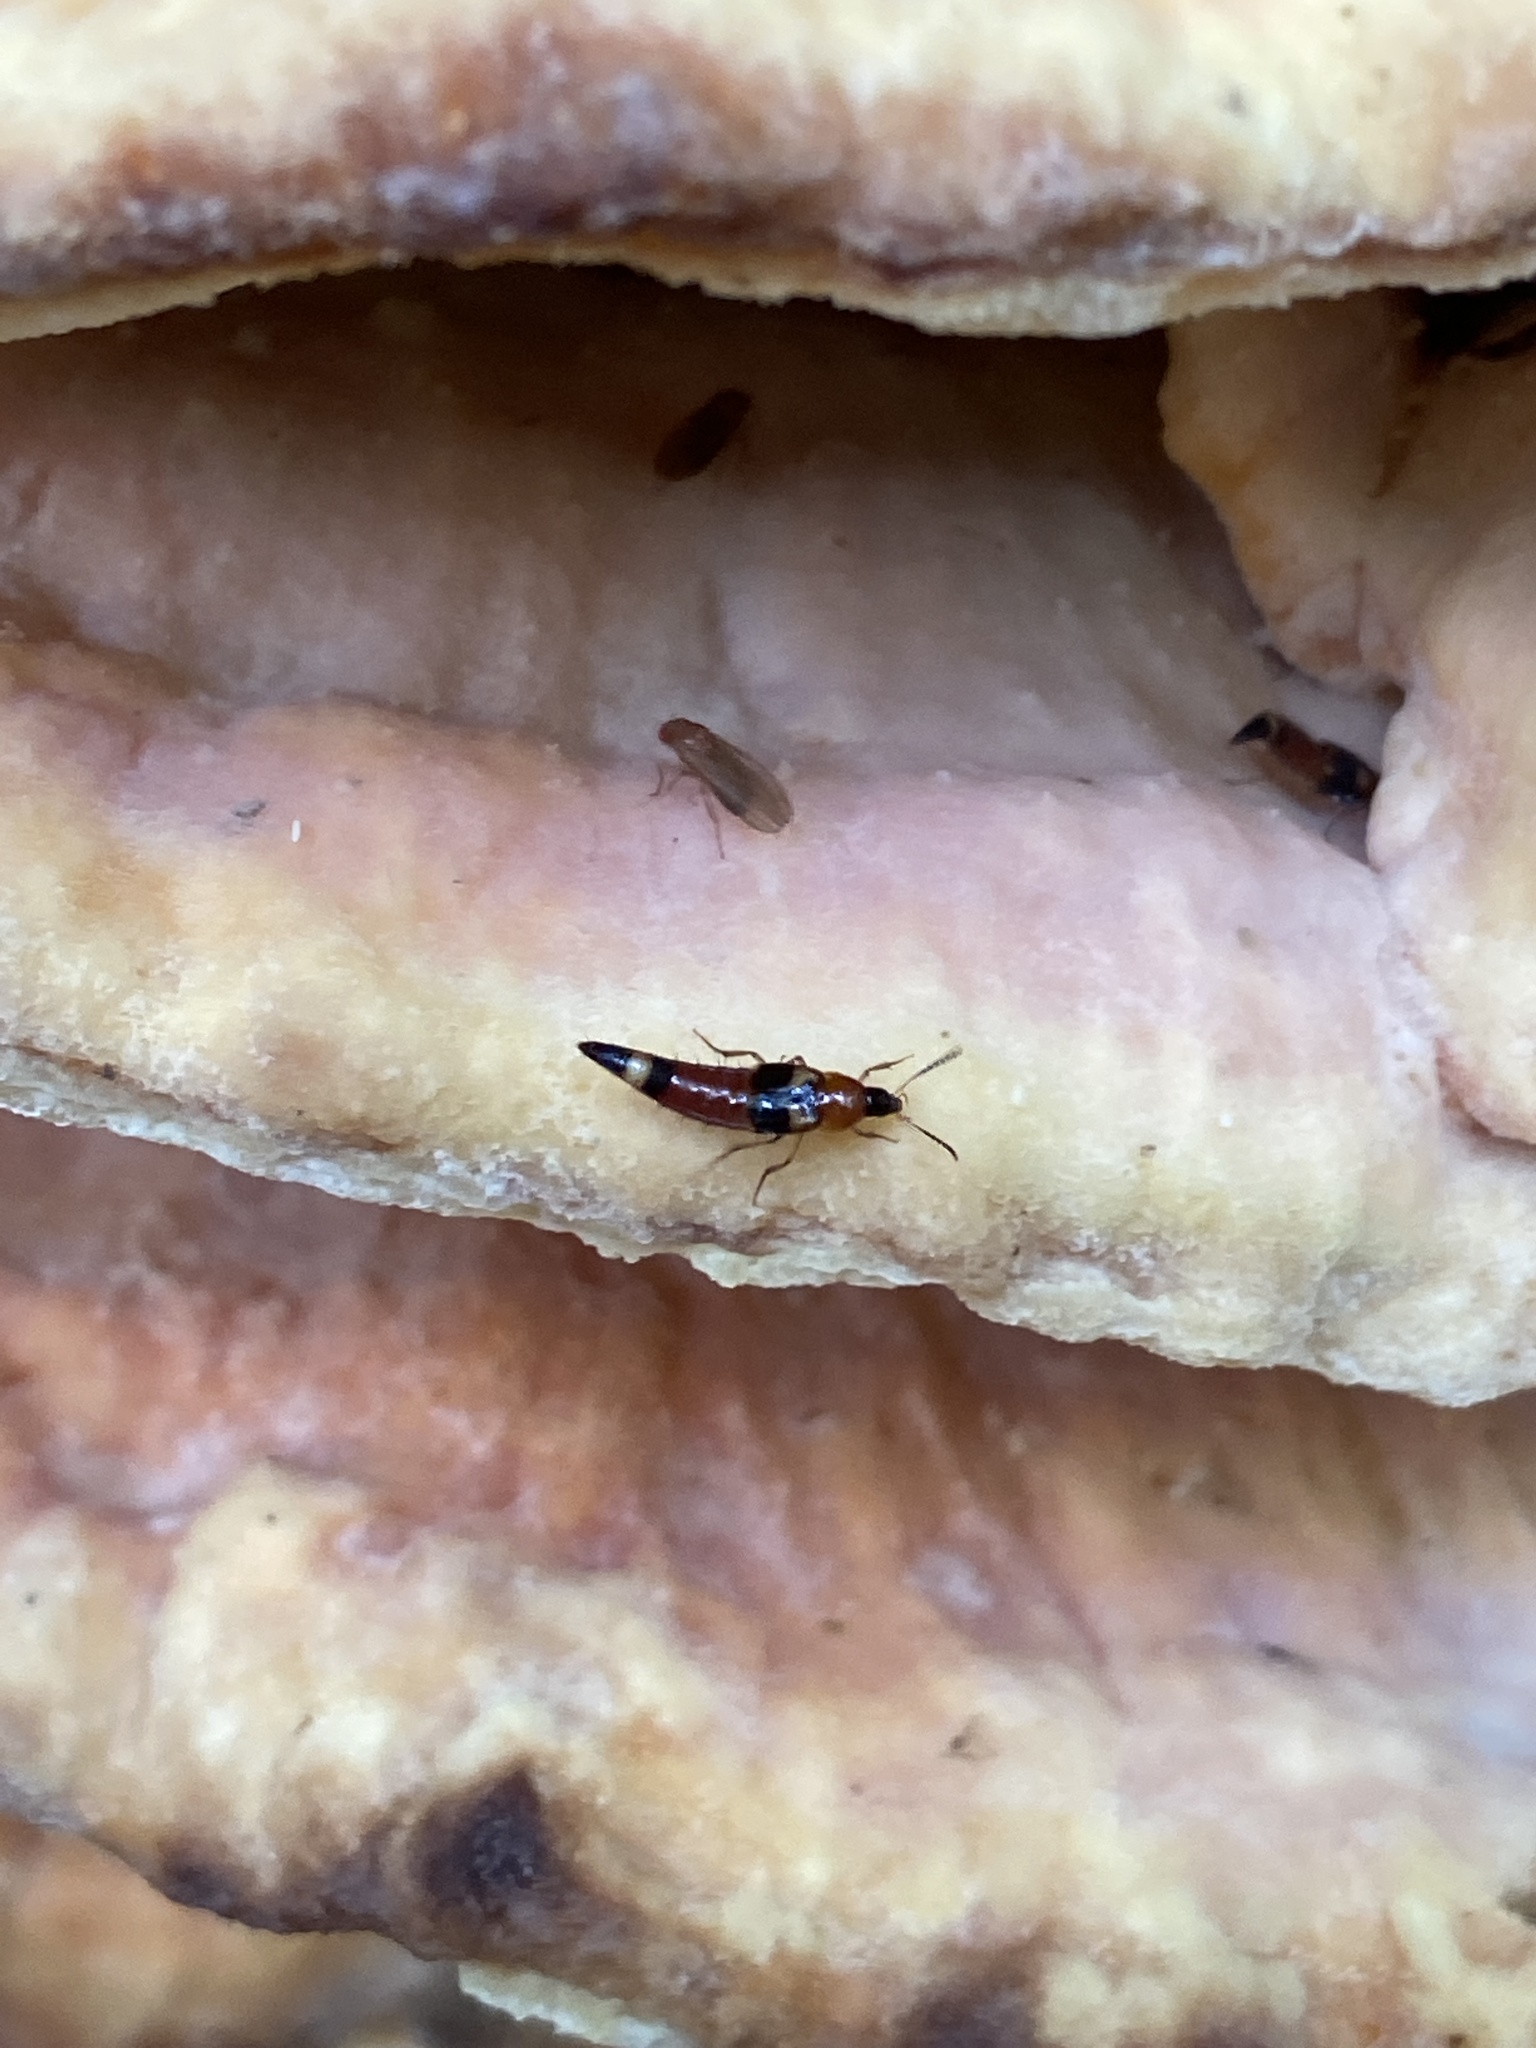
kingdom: Animalia
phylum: Arthropoda
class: Insecta
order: Coleoptera
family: Staphylinidae
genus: Bobitobus
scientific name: Bobitobus lunulatus
